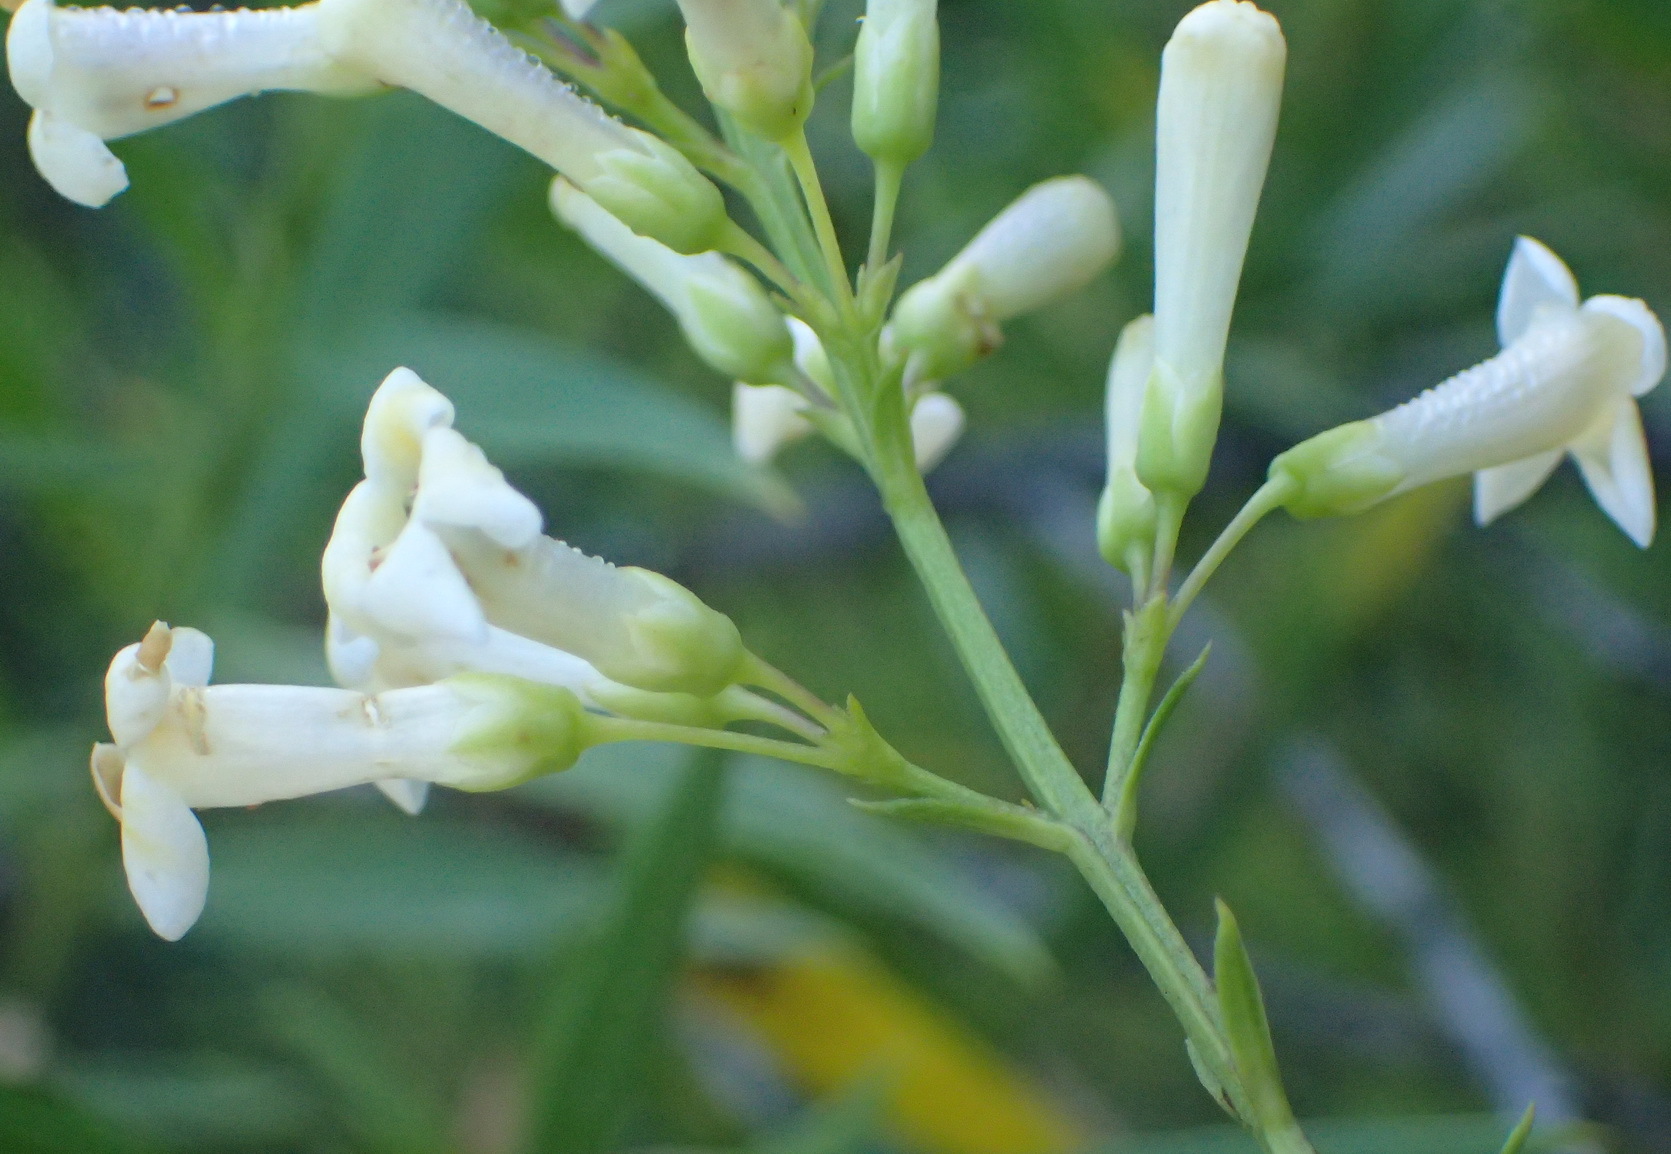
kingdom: Plantae
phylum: Tracheophyta
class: Magnoliopsida
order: Lamiales
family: Scrophulariaceae
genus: Freylinia
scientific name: Freylinia lanceolata
